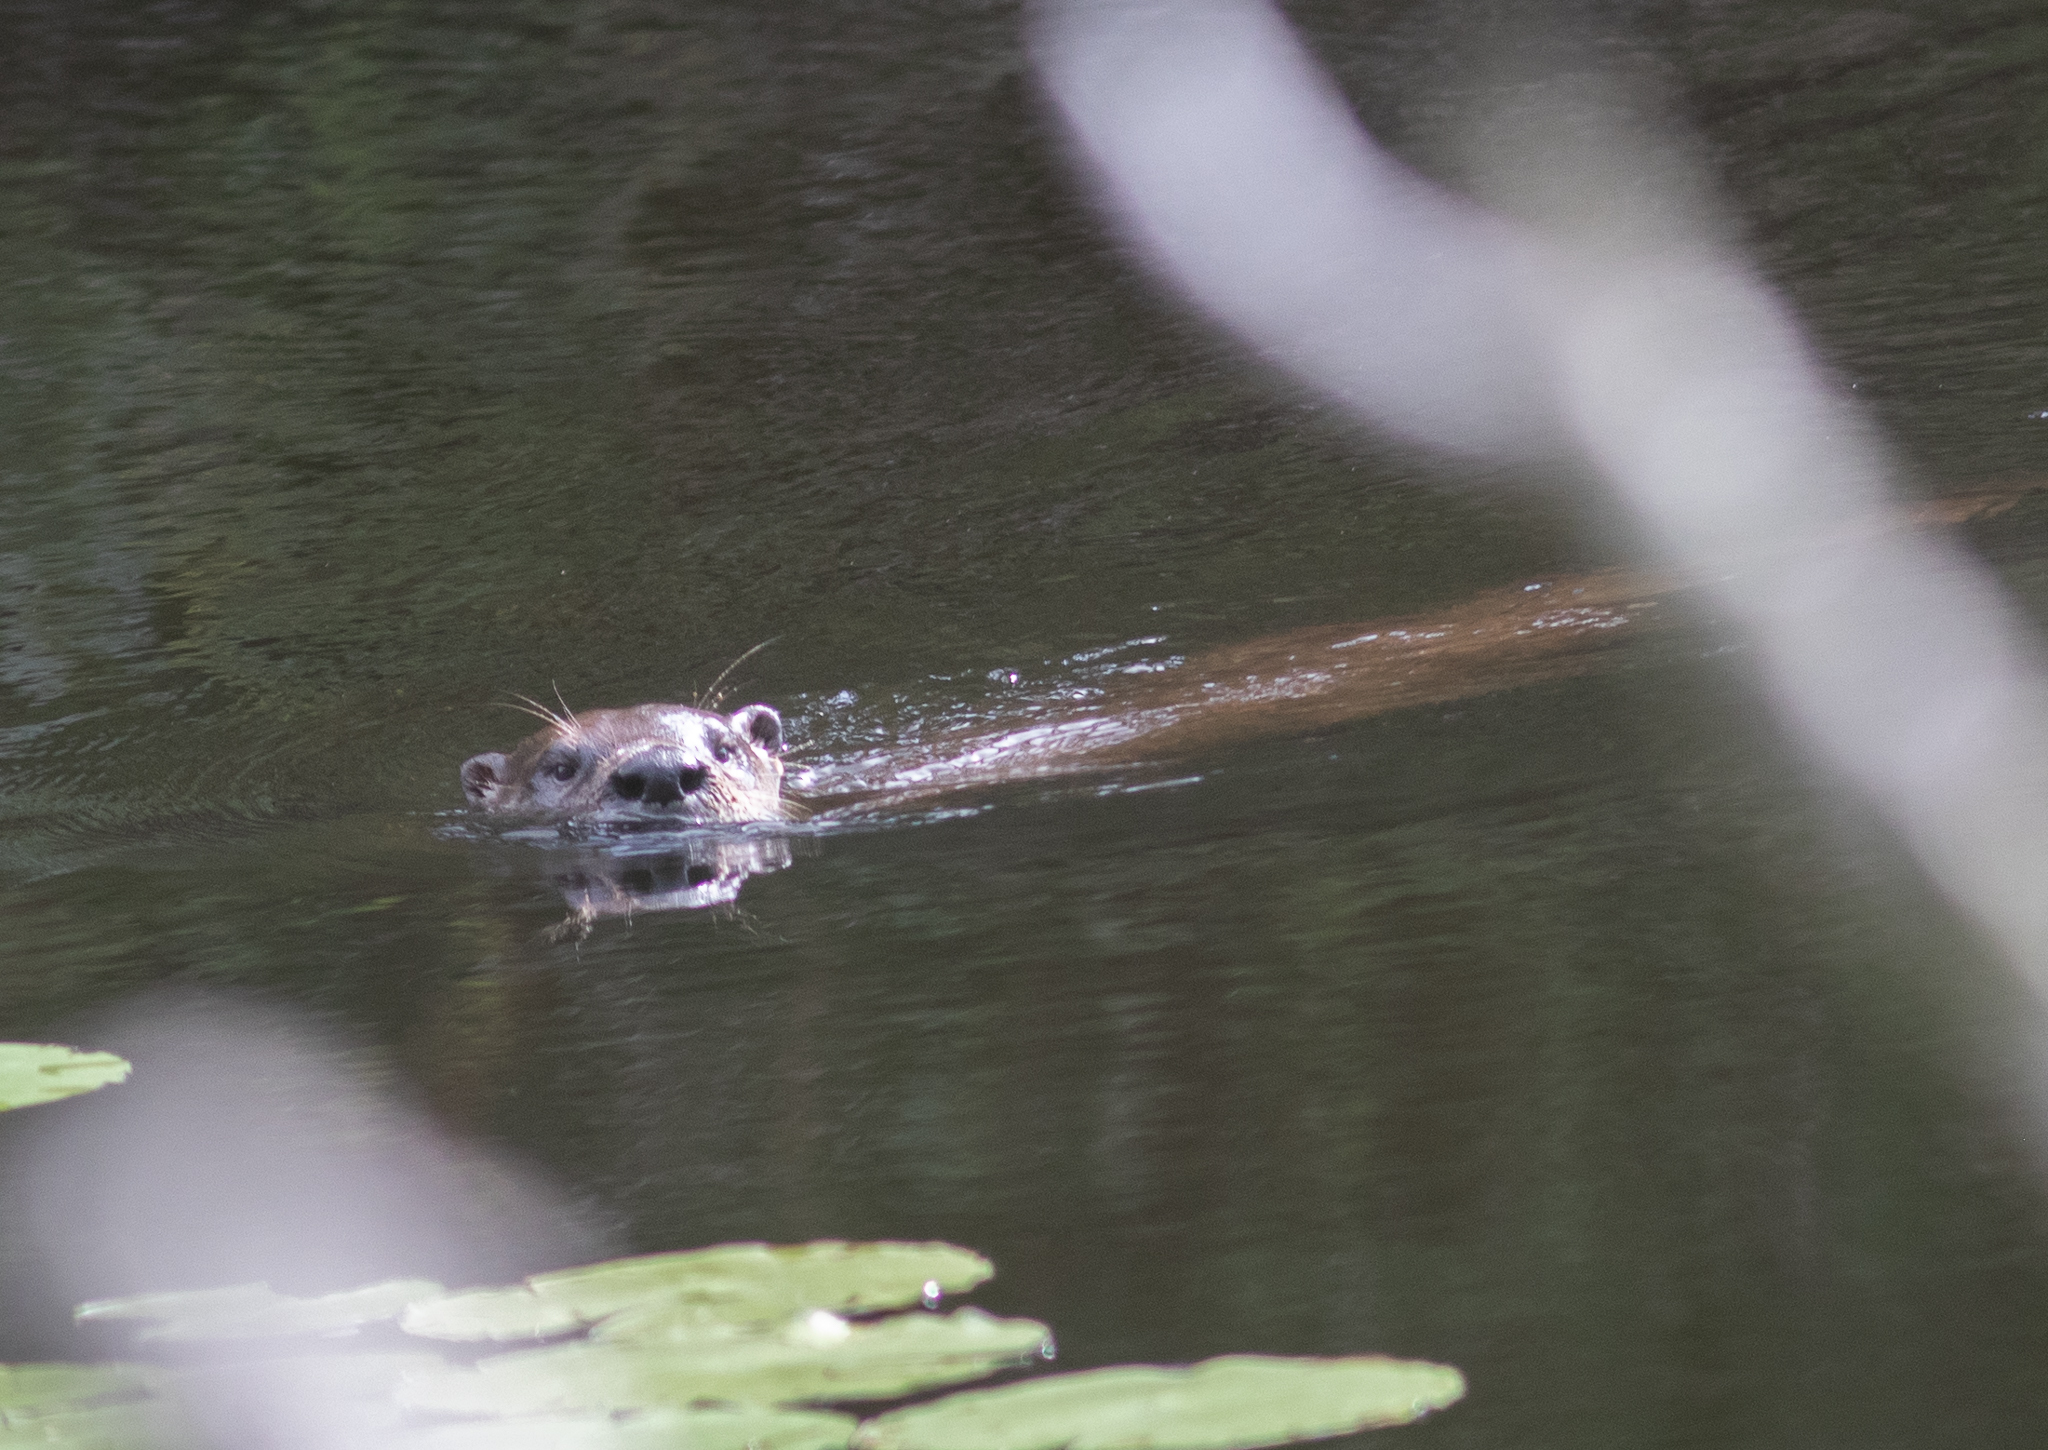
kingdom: Animalia
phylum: Chordata
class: Mammalia
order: Carnivora
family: Mustelidae
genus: Lontra
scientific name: Lontra canadensis
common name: North american river otter
